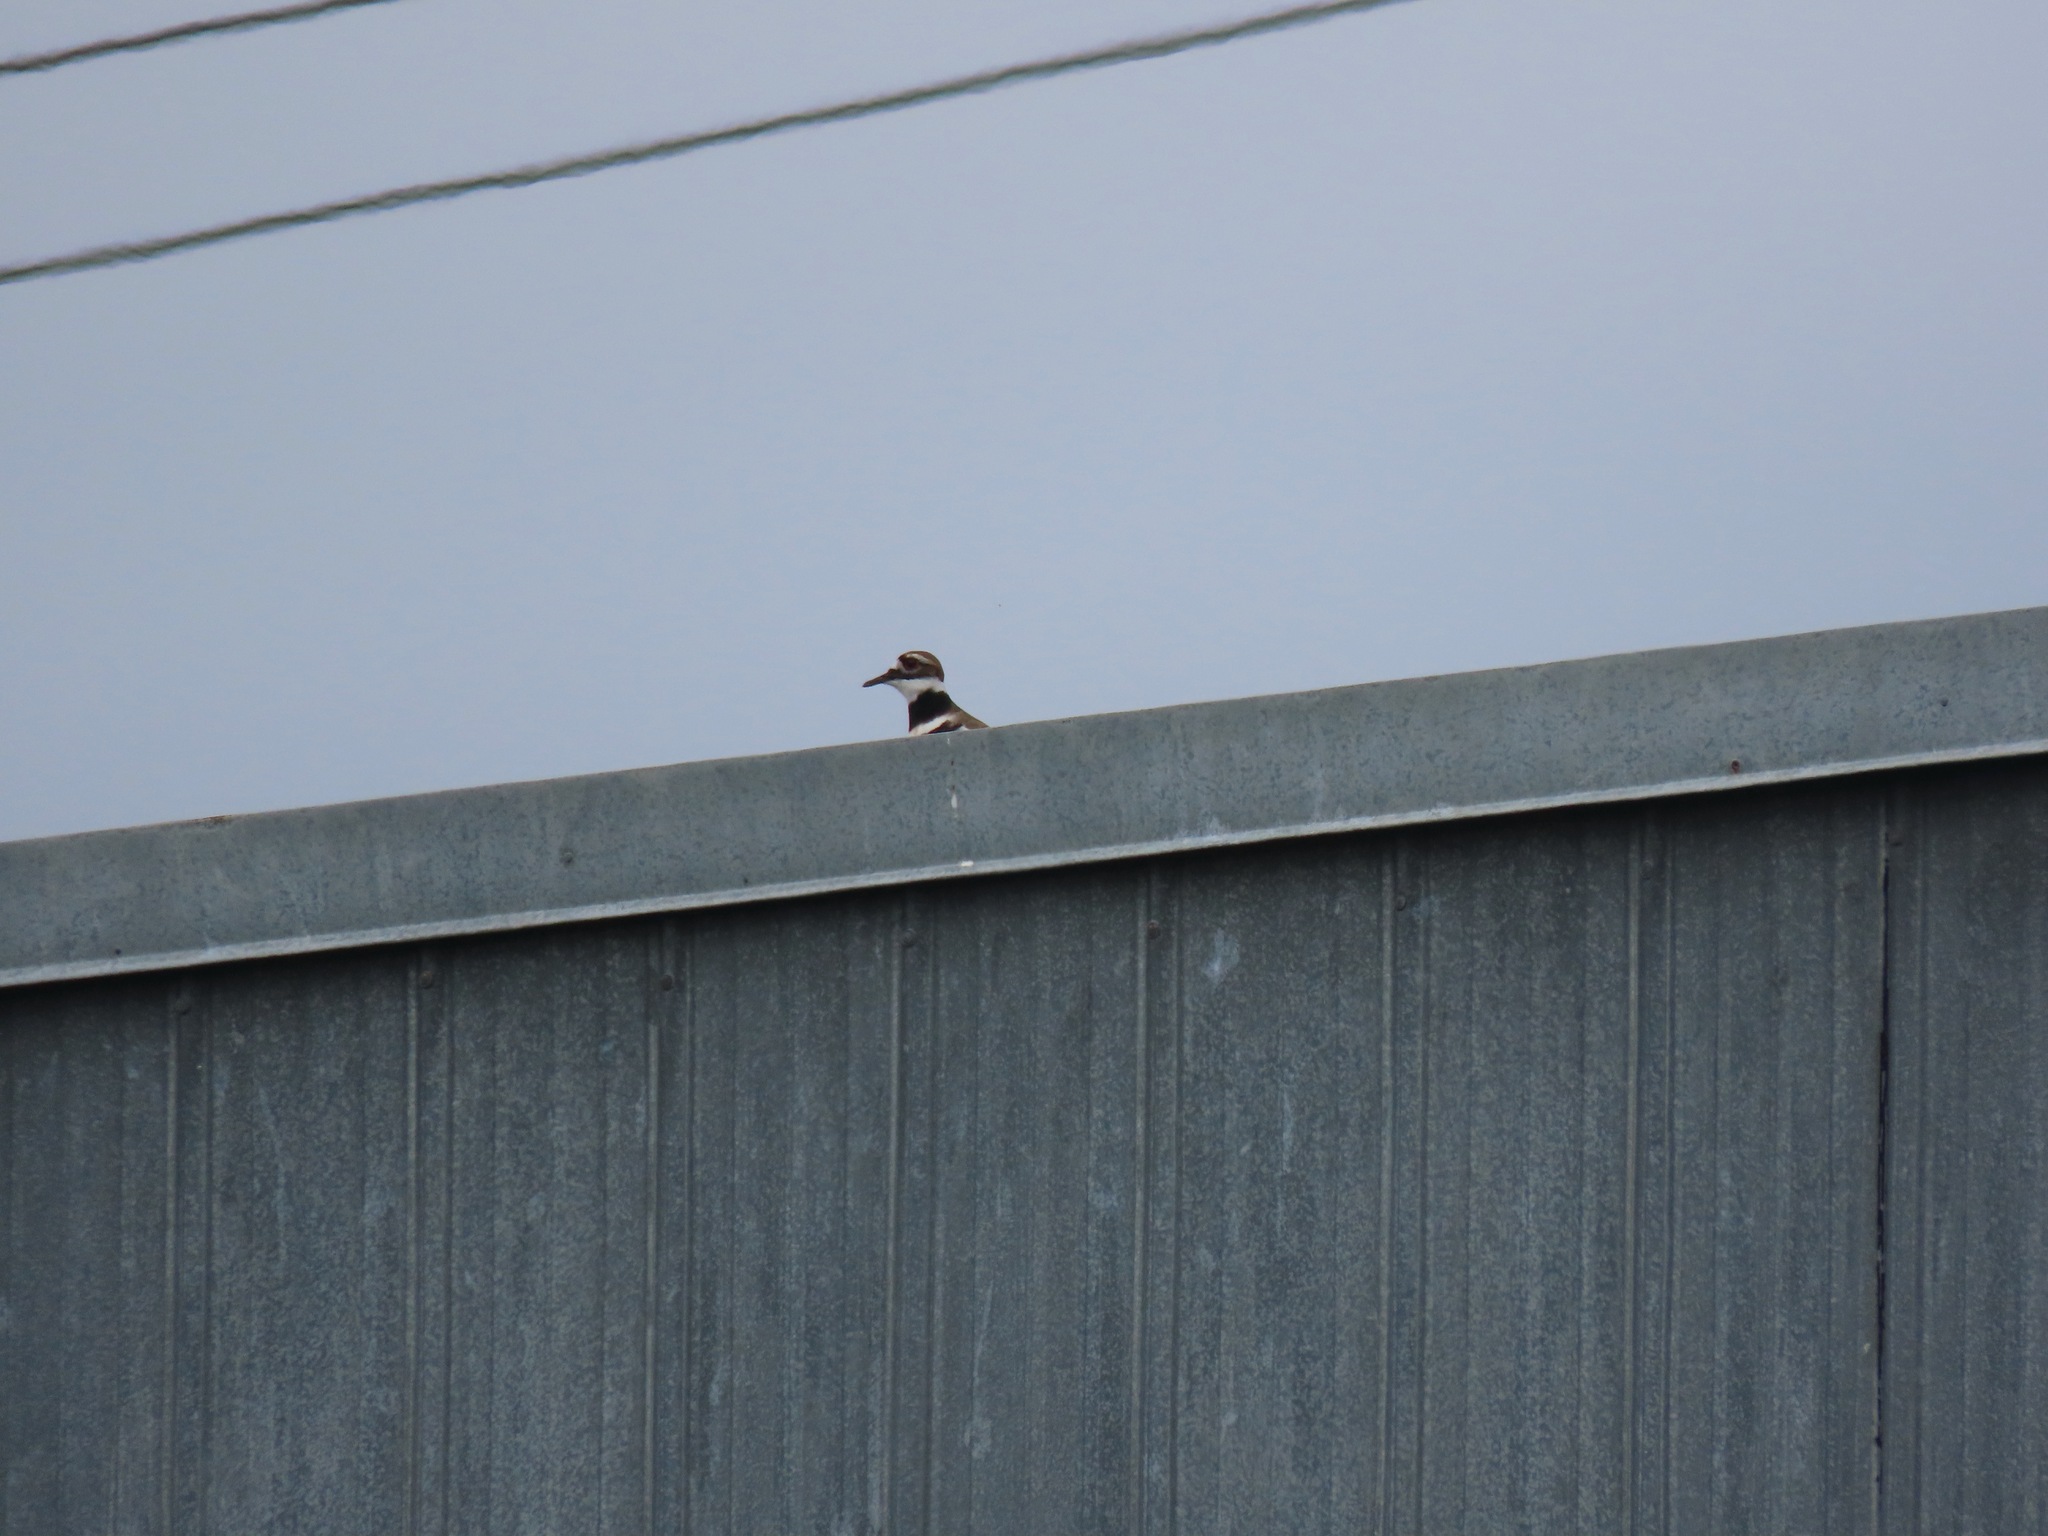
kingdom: Animalia
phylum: Chordata
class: Aves
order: Charadriiformes
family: Charadriidae
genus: Charadrius
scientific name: Charadrius vociferus
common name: Killdeer
